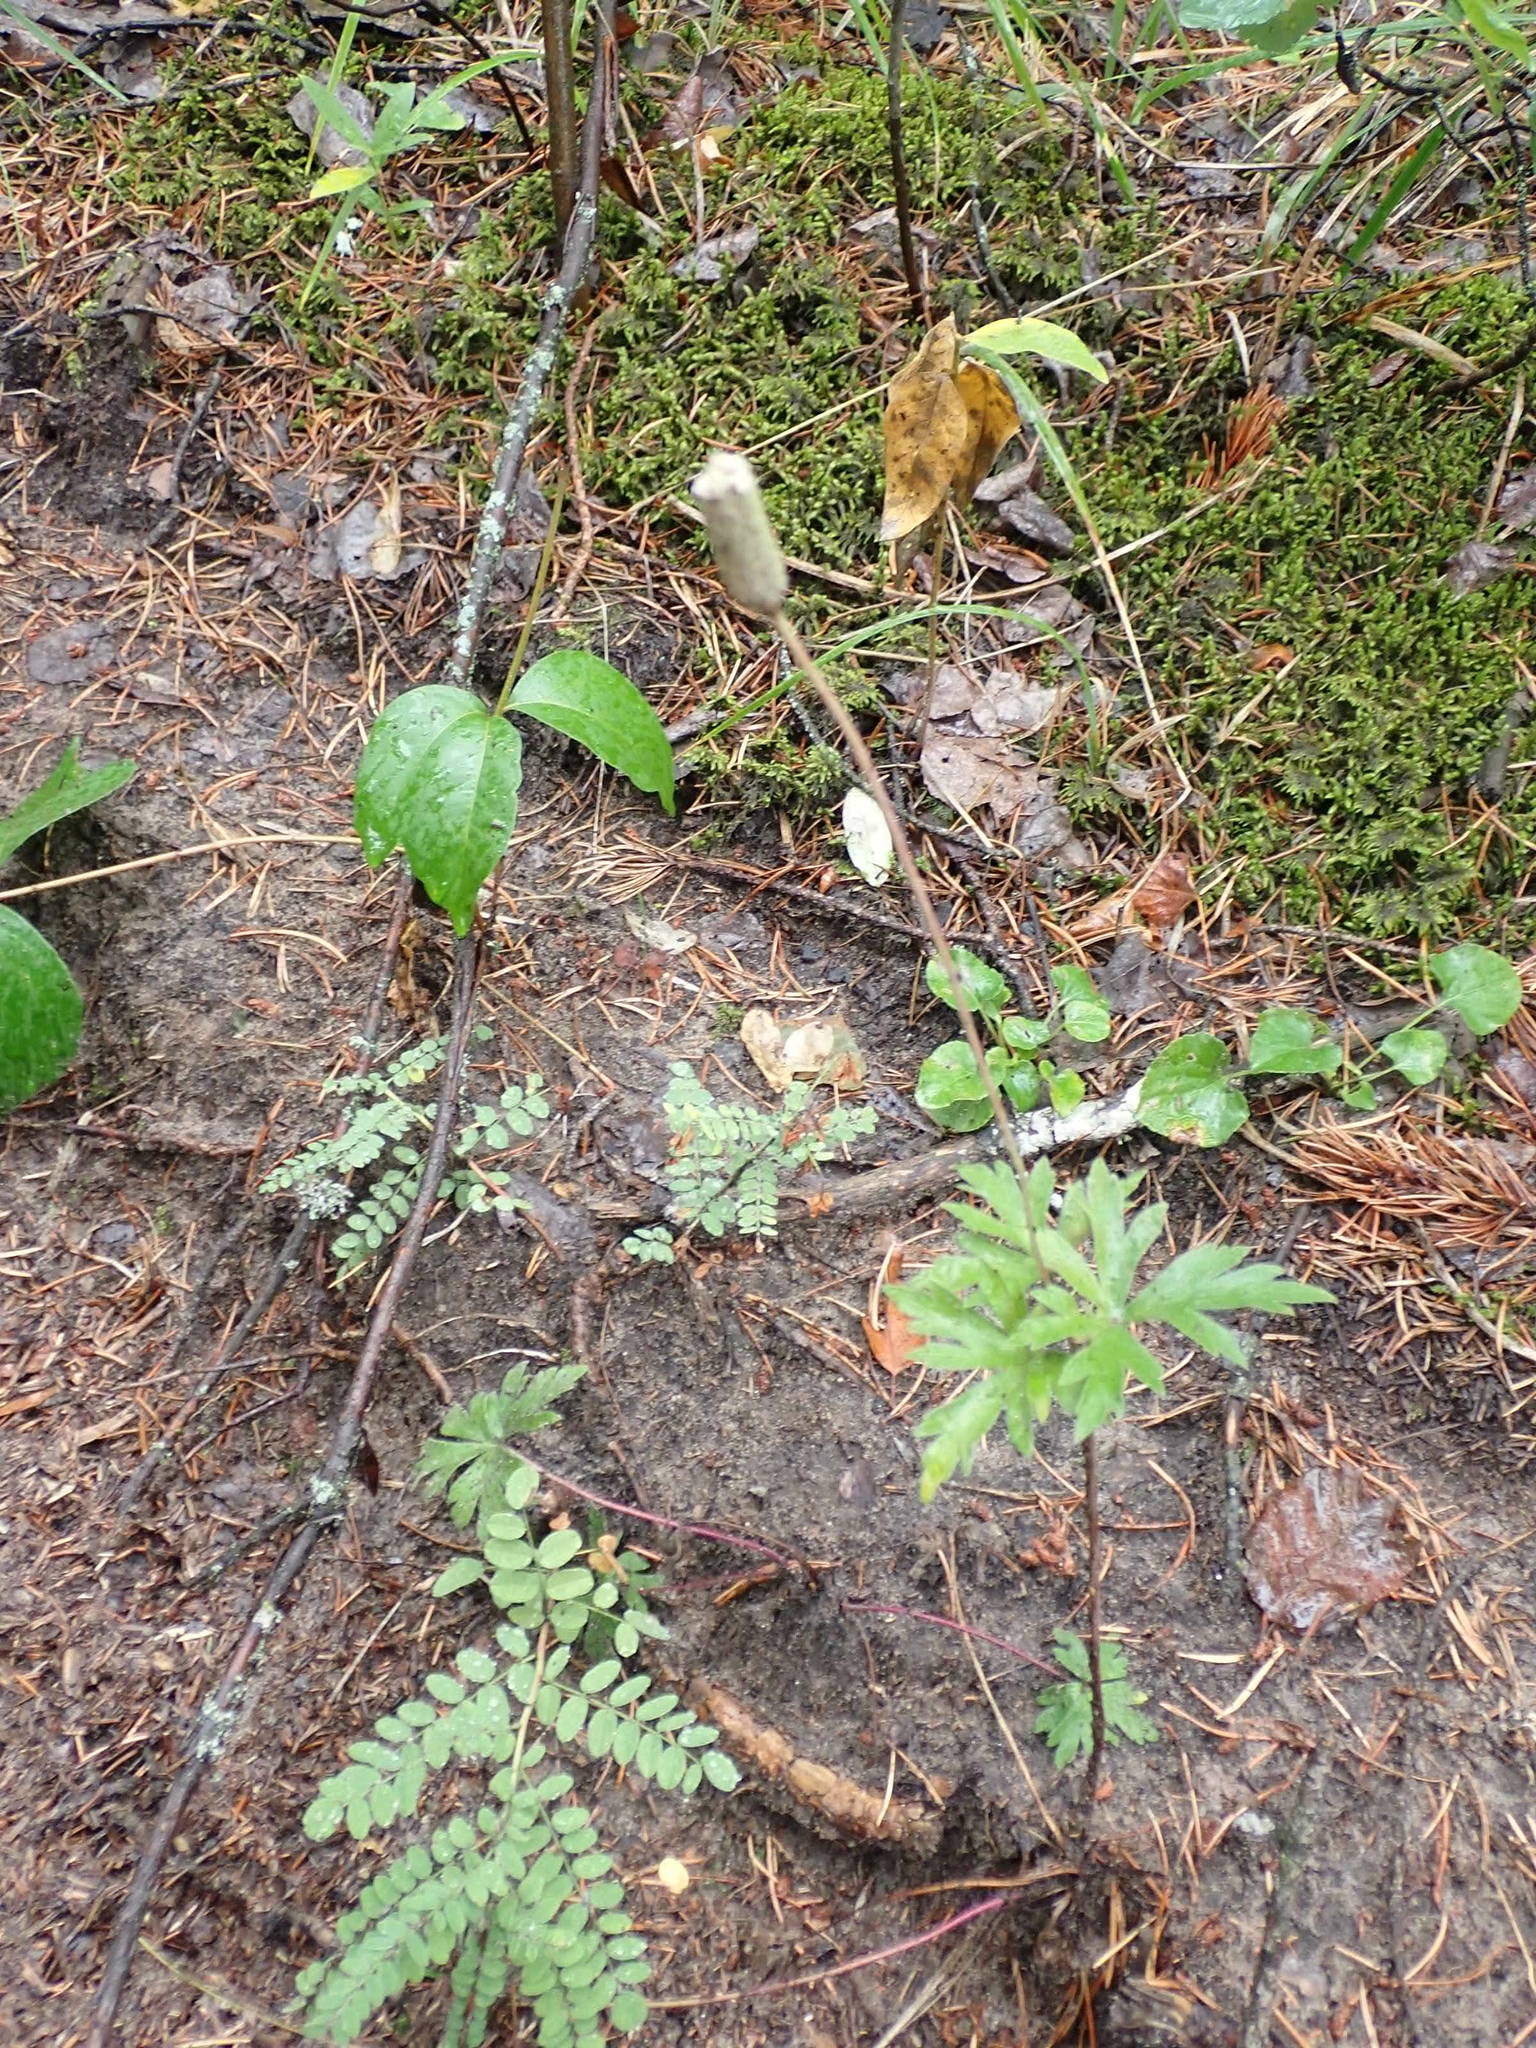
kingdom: Plantae
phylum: Tracheophyta
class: Magnoliopsida
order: Ranunculales
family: Ranunculaceae
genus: Anemone
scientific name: Anemone cylindrica
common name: Candle anemone
